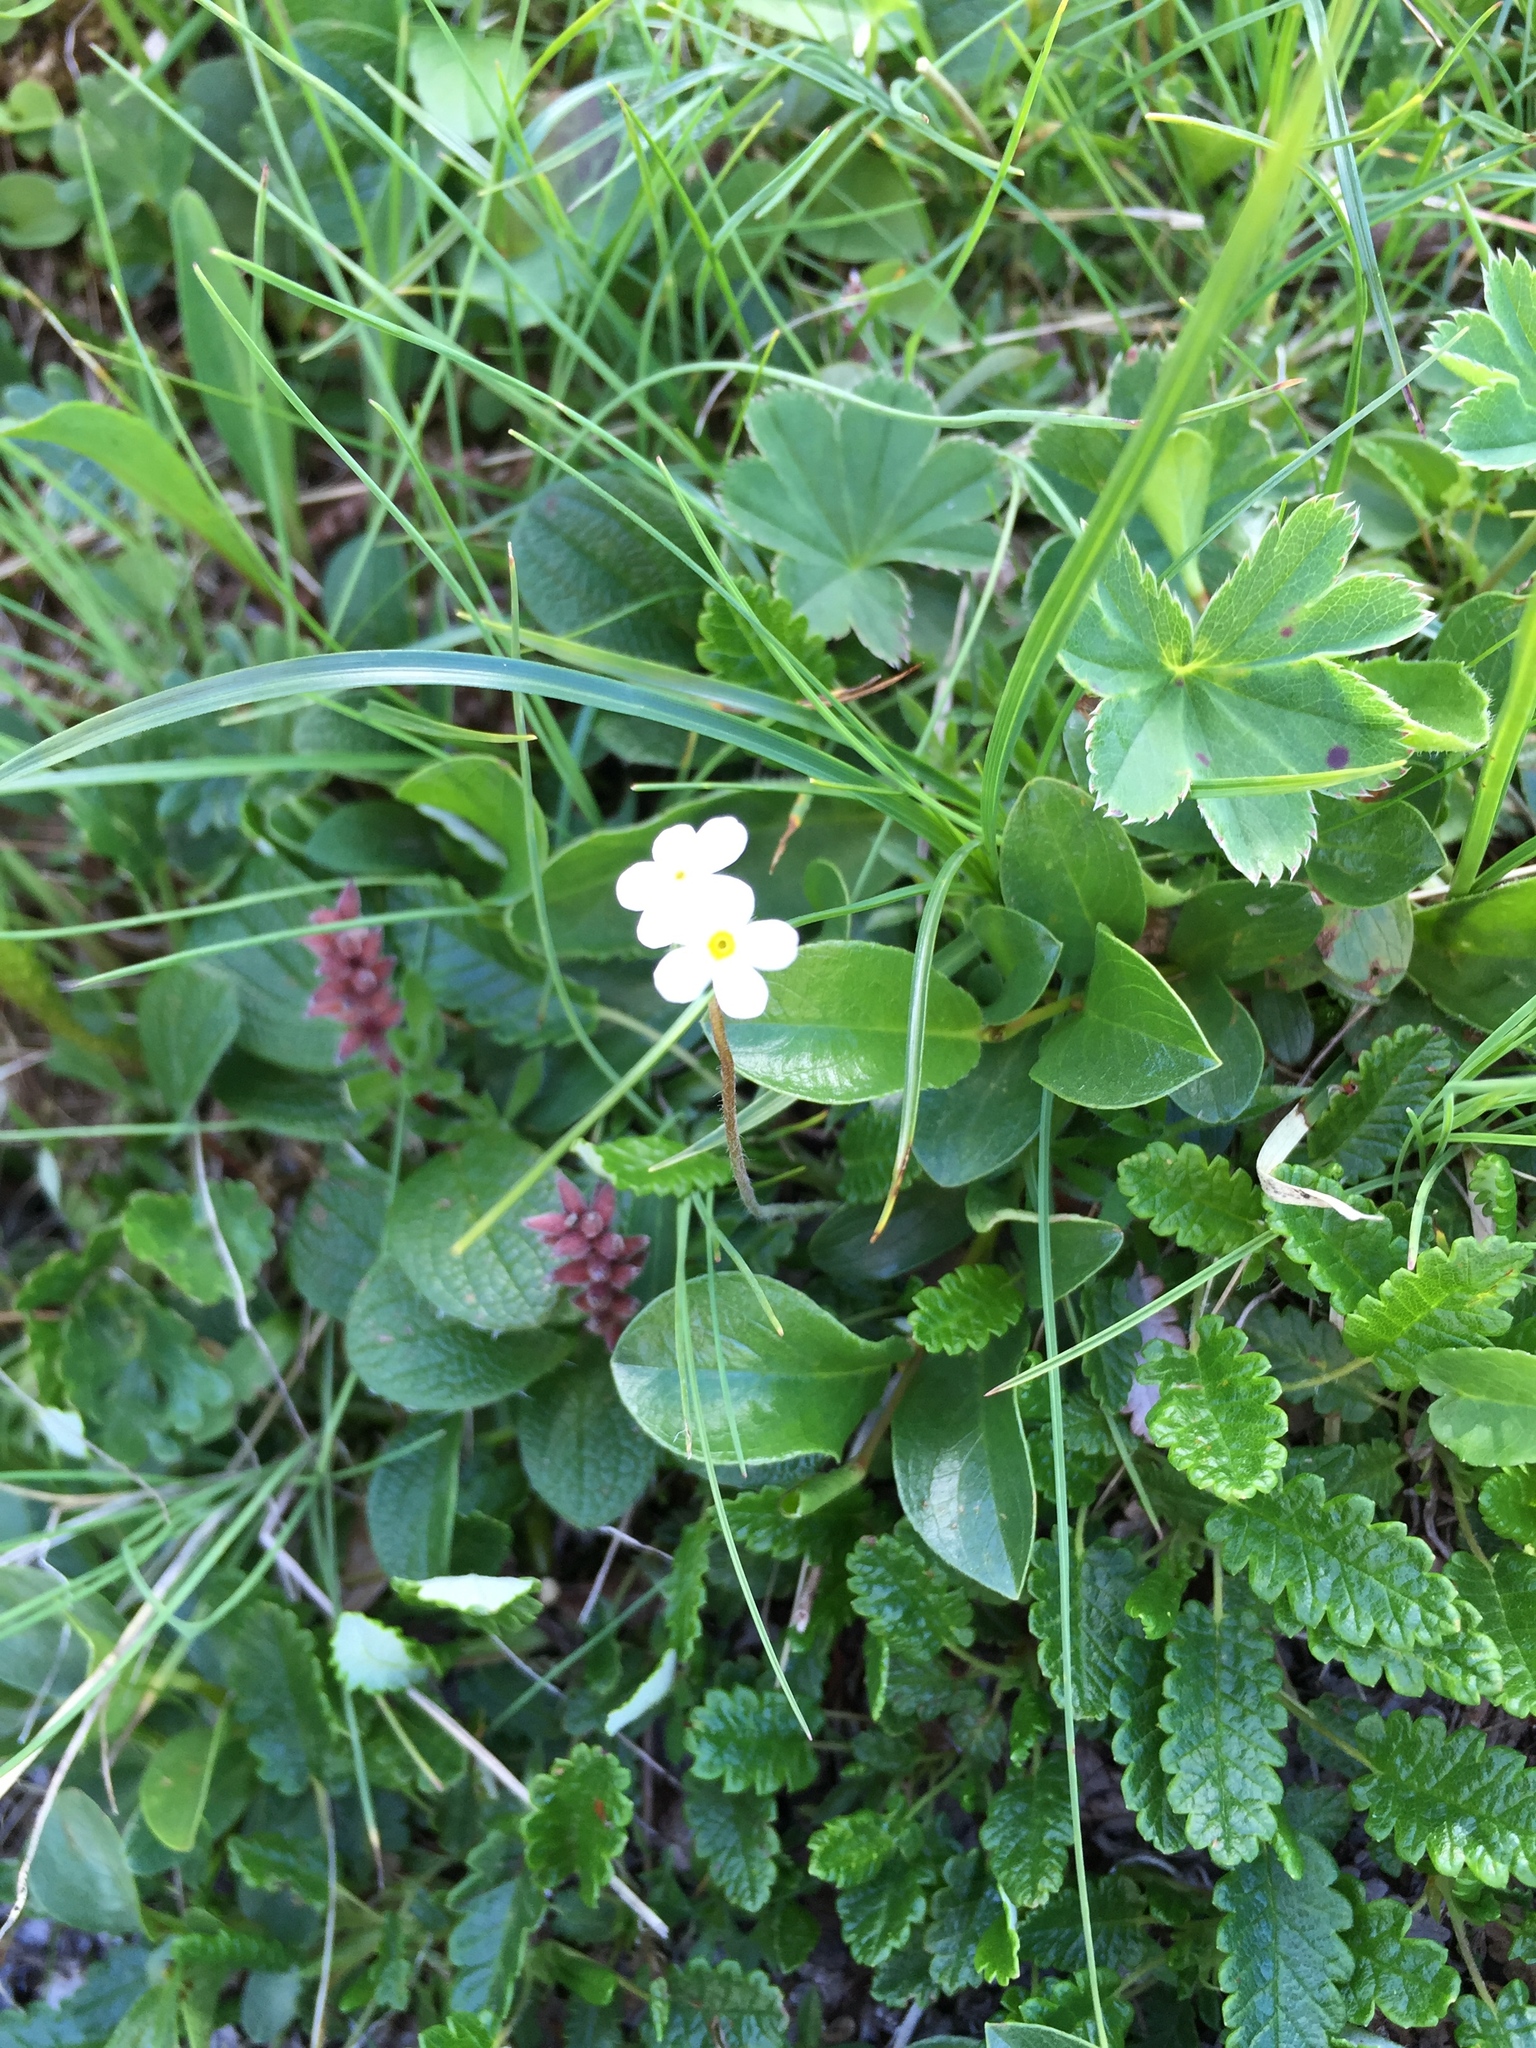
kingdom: Plantae
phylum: Tracheophyta
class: Magnoliopsida
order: Ericales
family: Primulaceae
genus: Androsace
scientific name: Androsace chamaejasme
